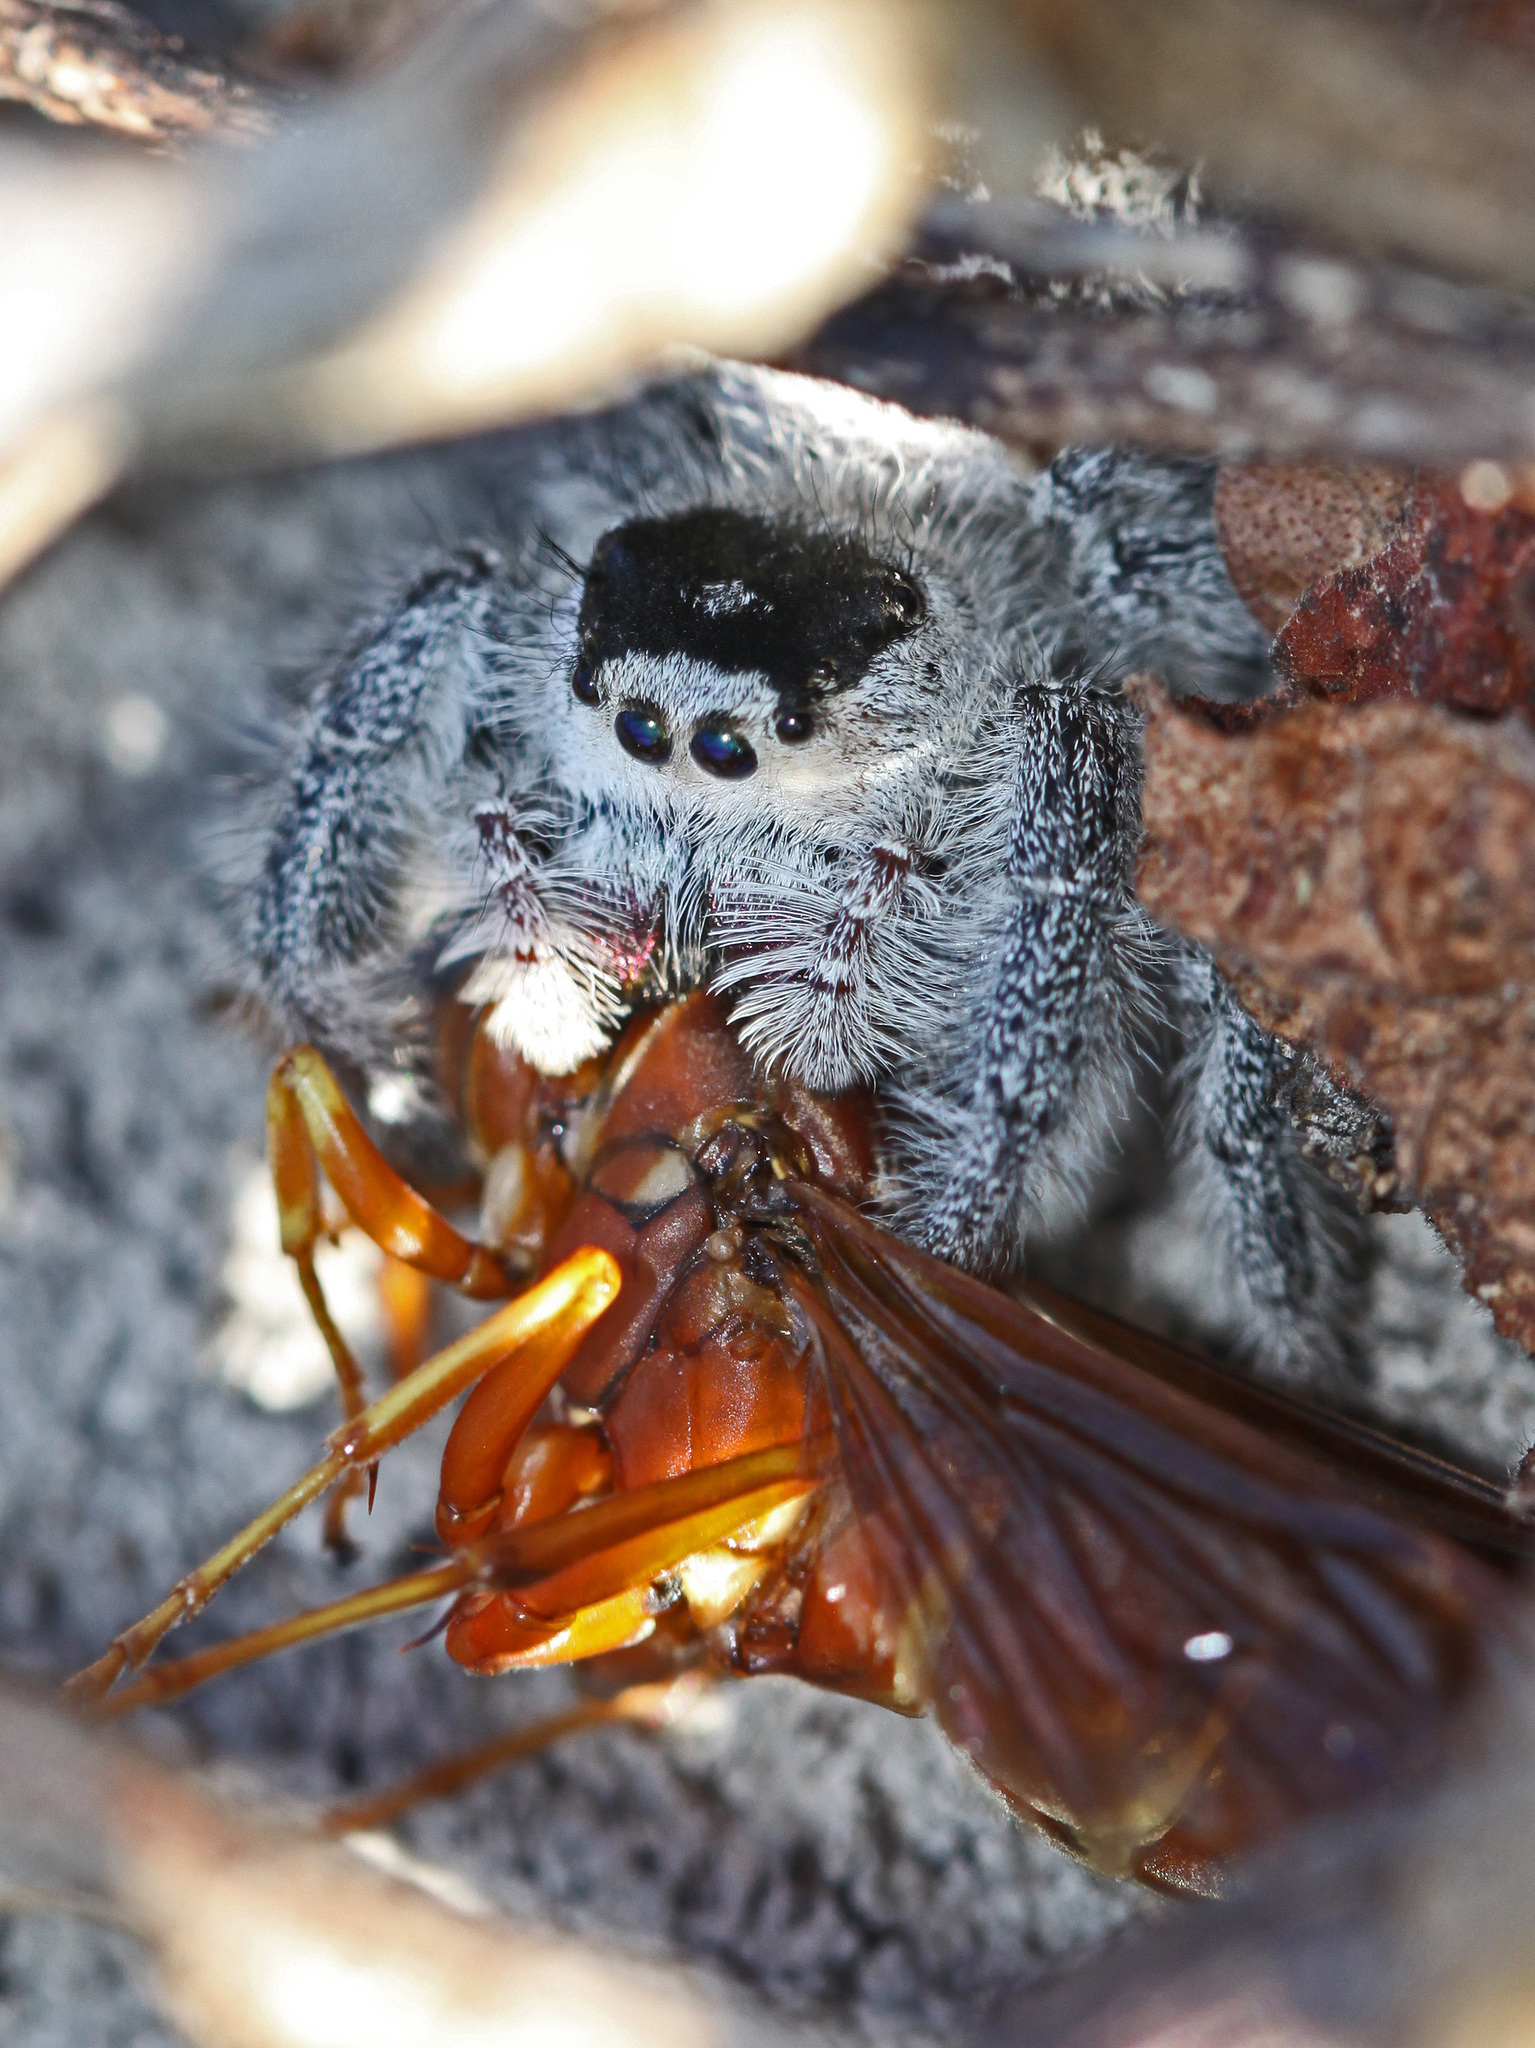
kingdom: Animalia
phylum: Arthropoda
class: Arachnida
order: Araneae
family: Salticidae
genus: Phidippus
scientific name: Phidippus regius
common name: Regal jumper
